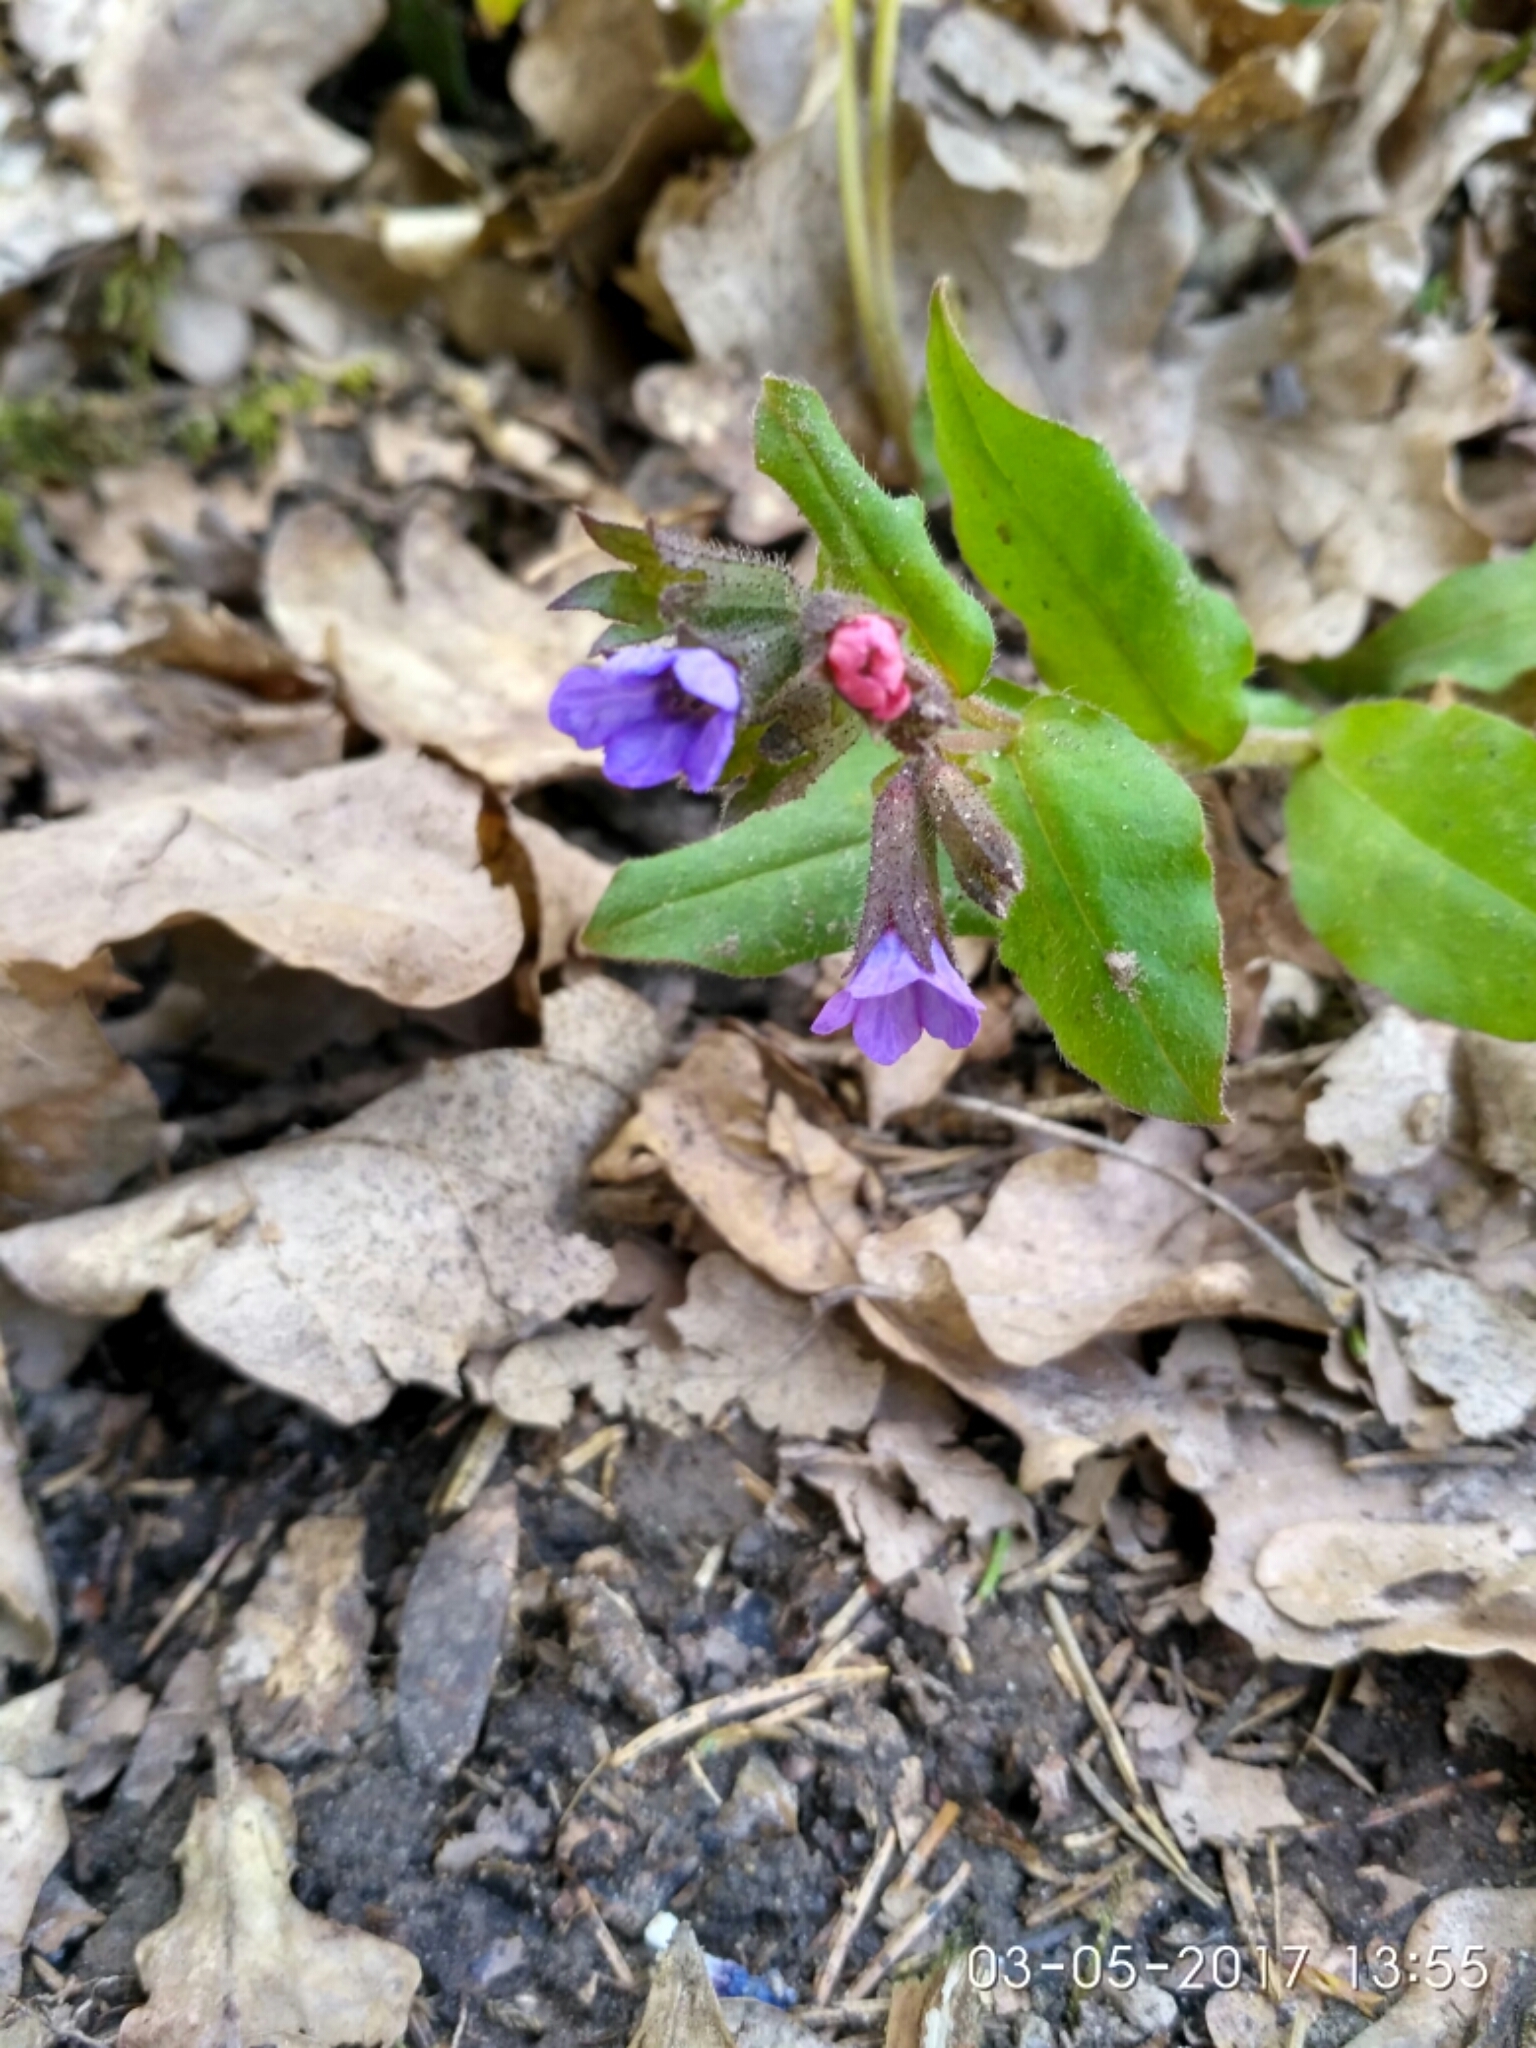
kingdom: Plantae
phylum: Tracheophyta
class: Magnoliopsida
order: Boraginales
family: Boraginaceae
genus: Pulmonaria
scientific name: Pulmonaria obscura
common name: Suffolk lungwort
